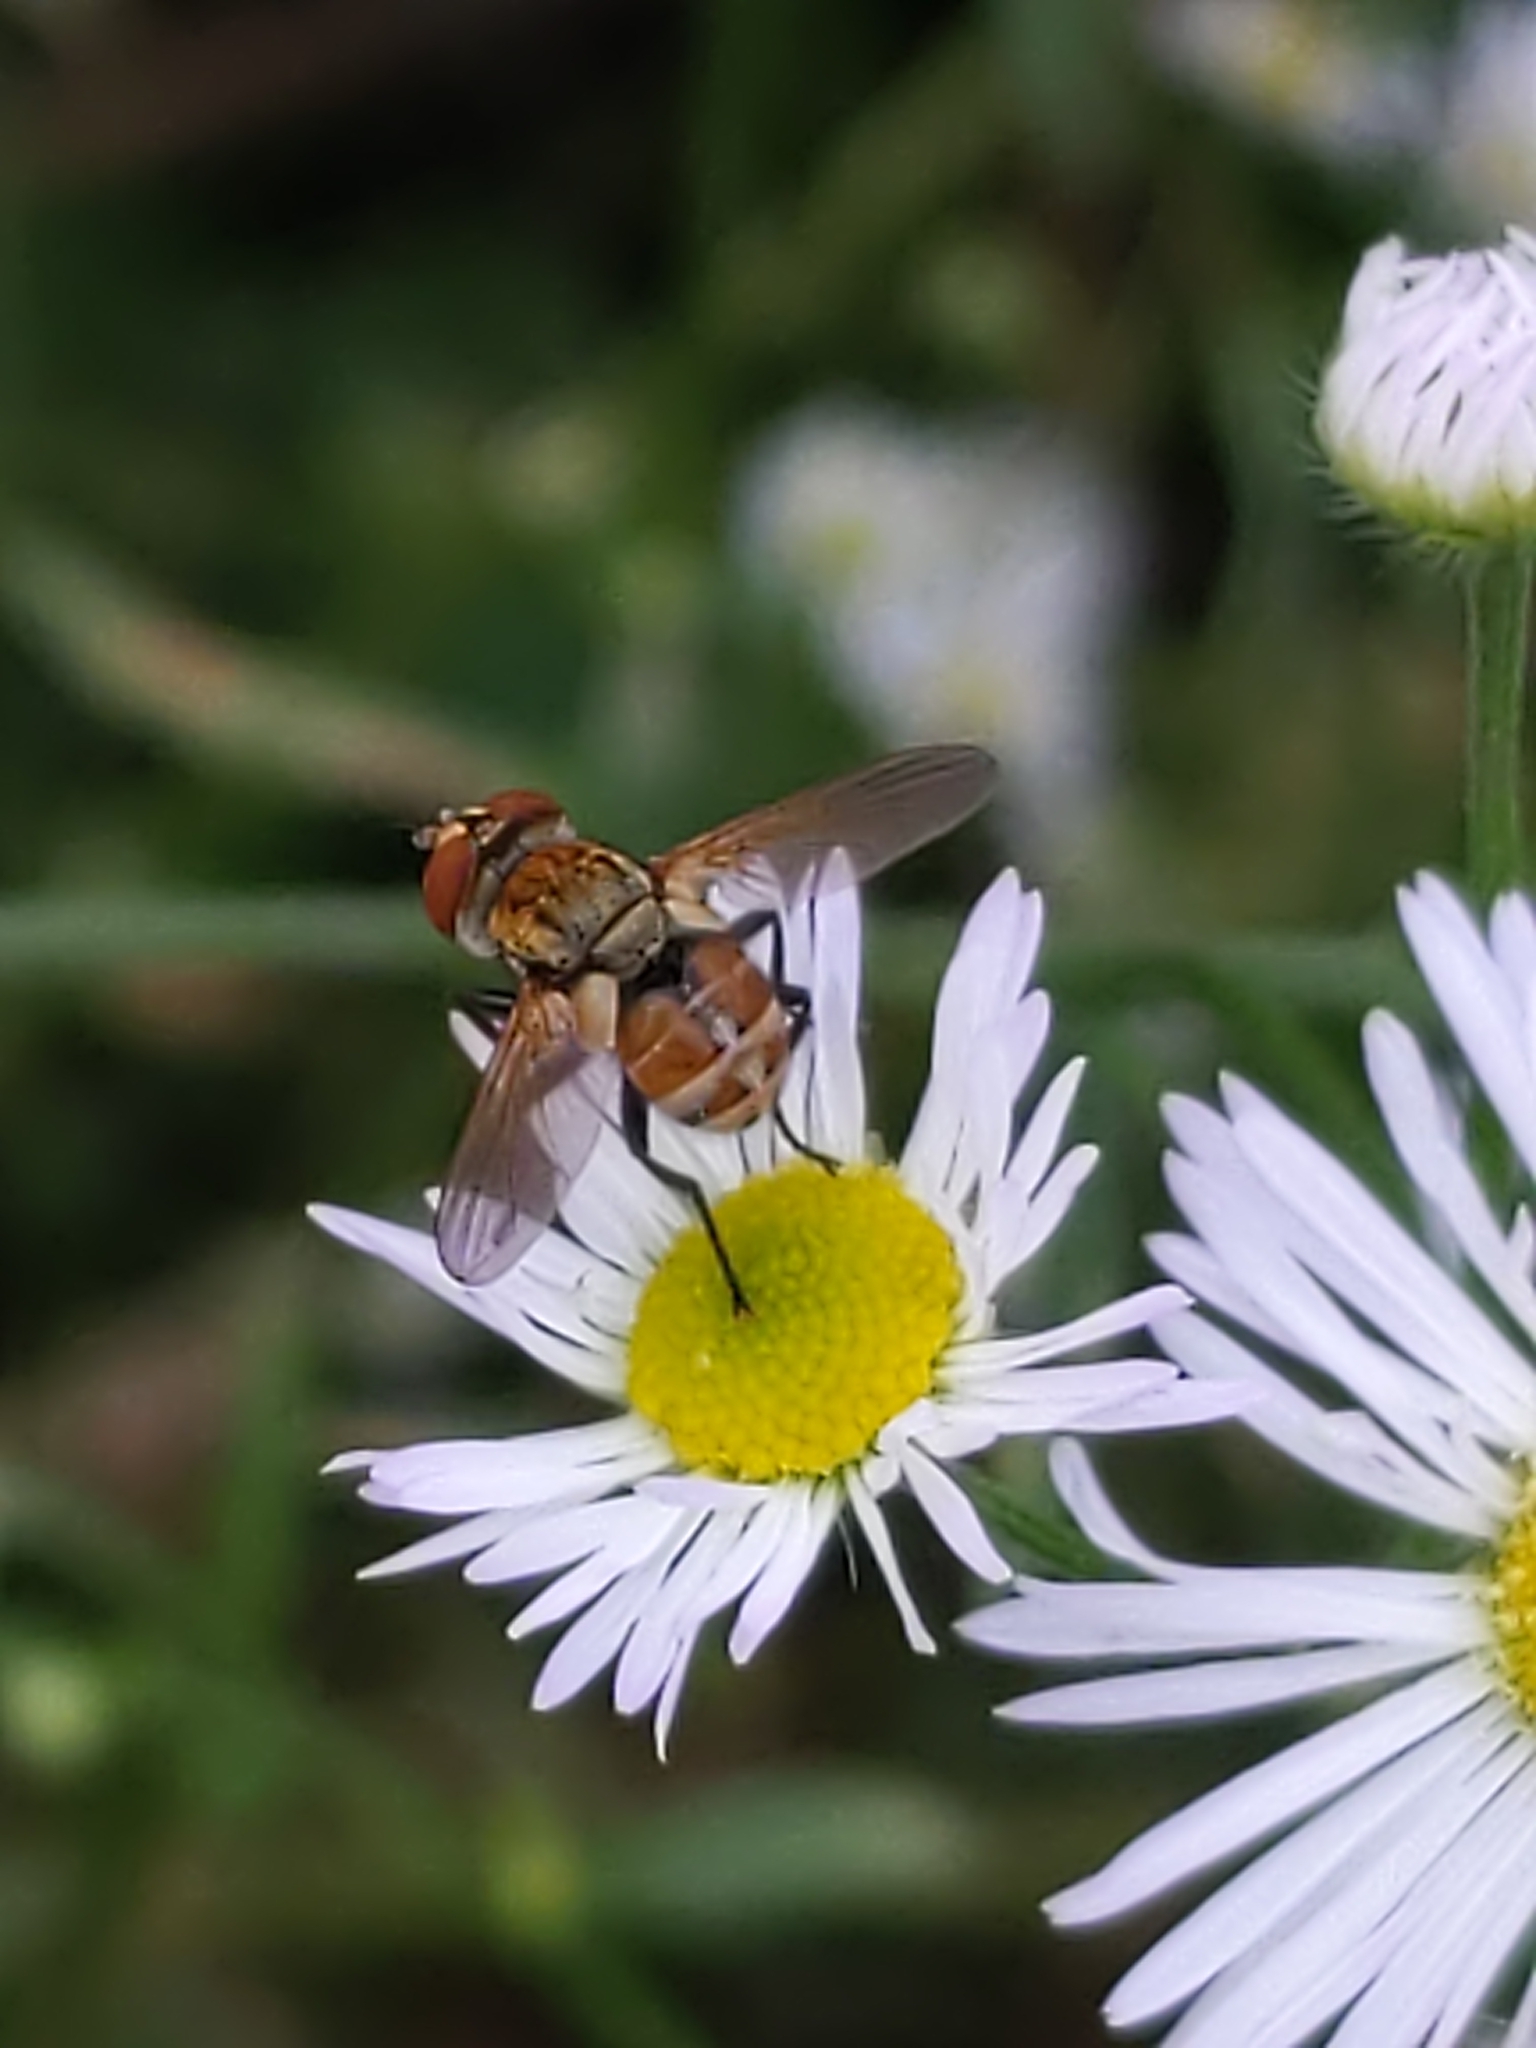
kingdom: Animalia
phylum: Arthropoda
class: Insecta
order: Diptera
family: Tachinidae
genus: Gymnoclytia
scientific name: Gymnoclytia
